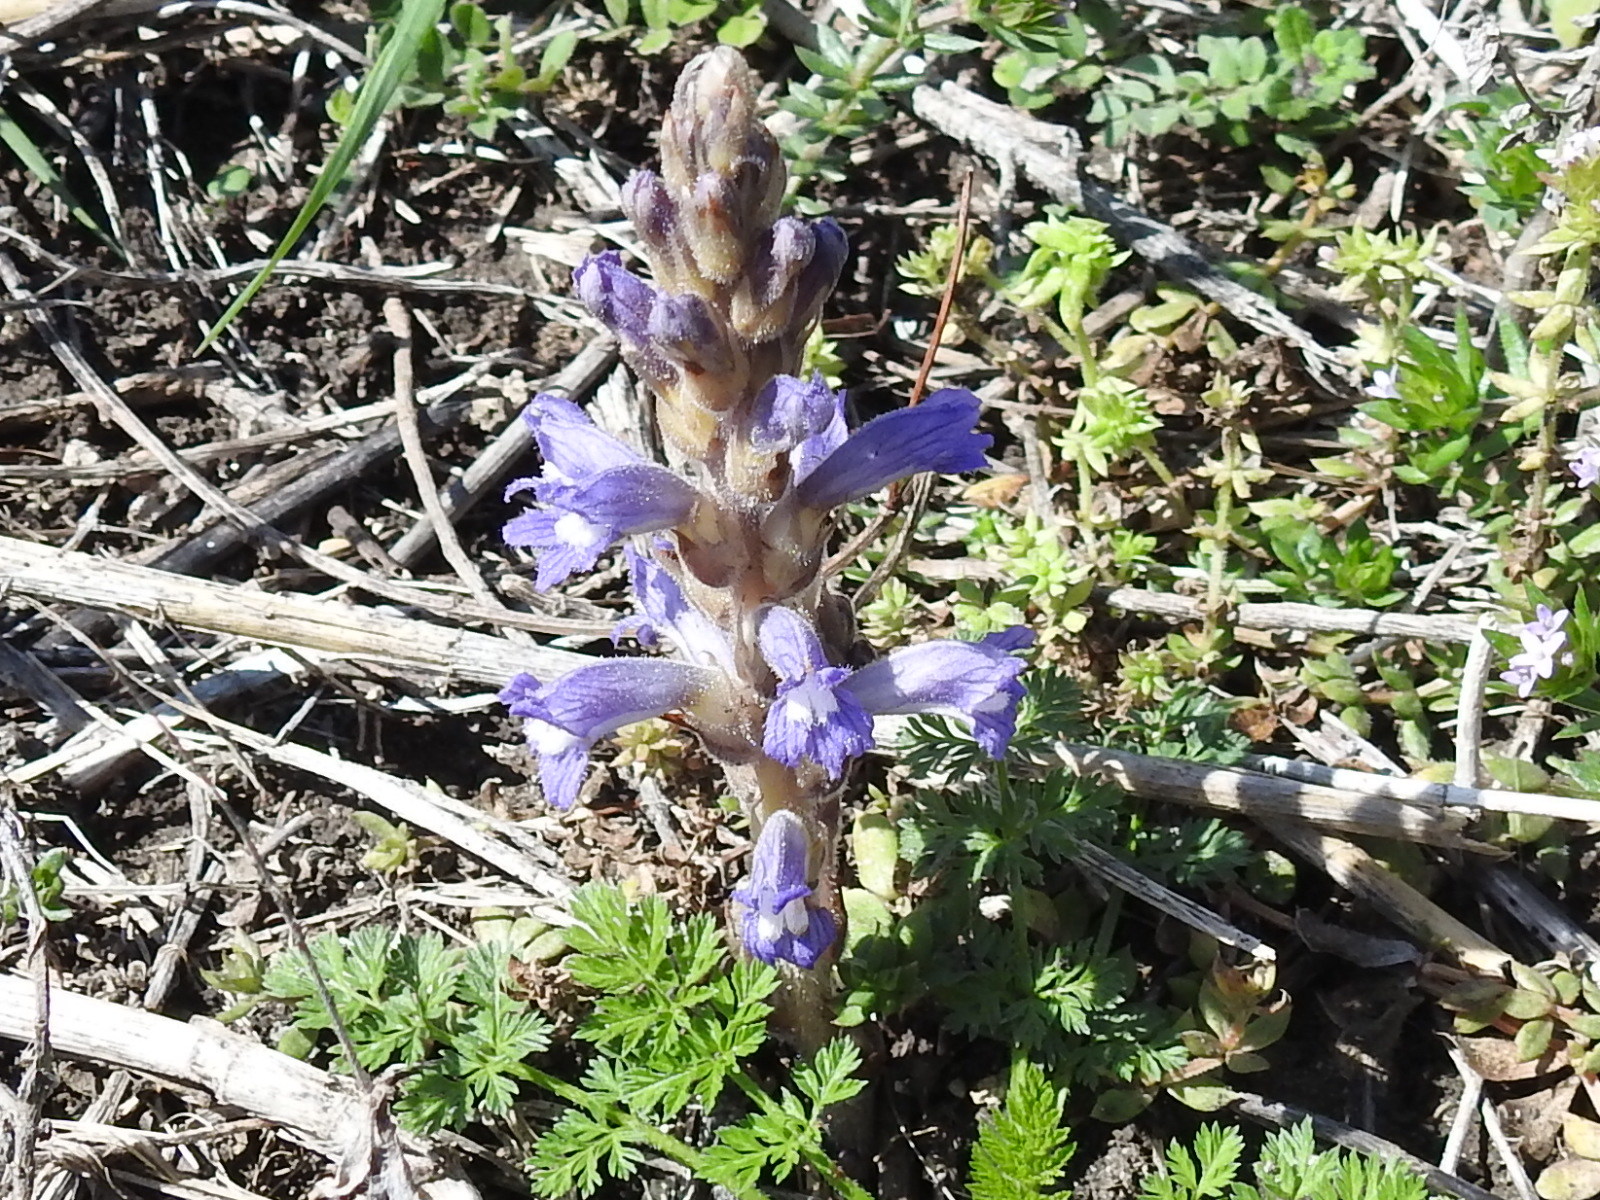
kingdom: Plantae
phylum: Tracheophyta
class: Magnoliopsida
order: Lamiales
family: Orobanchaceae
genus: Phelipanche
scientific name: Phelipanche ramosa
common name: Branched broomrape
